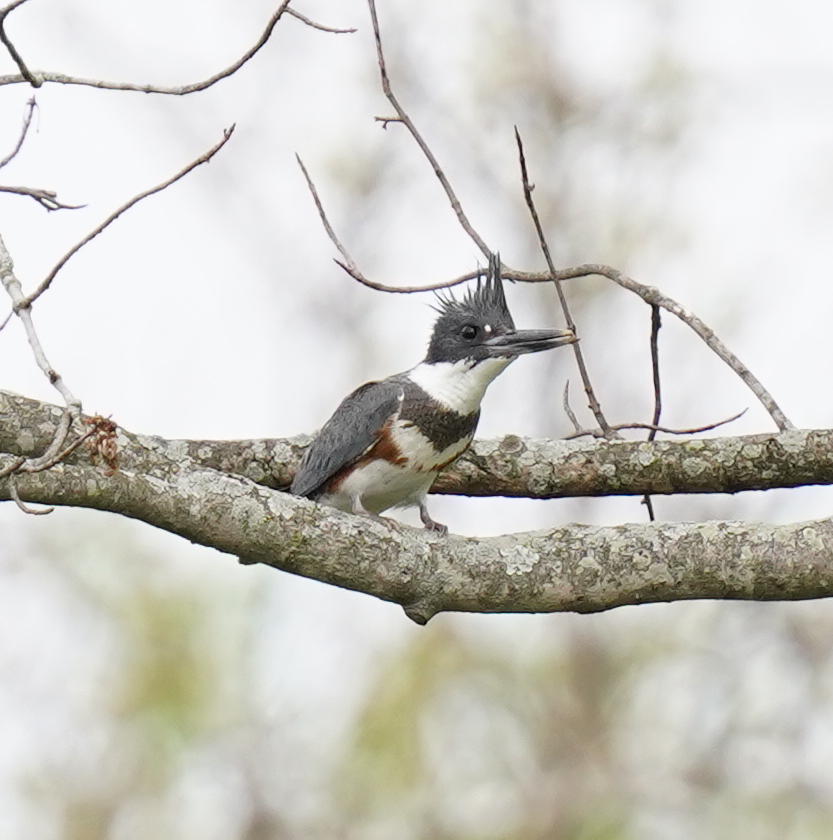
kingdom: Animalia
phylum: Chordata
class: Aves
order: Coraciiformes
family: Alcedinidae
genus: Megaceryle
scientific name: Megaceryle alcyon
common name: Belted kingfisher
